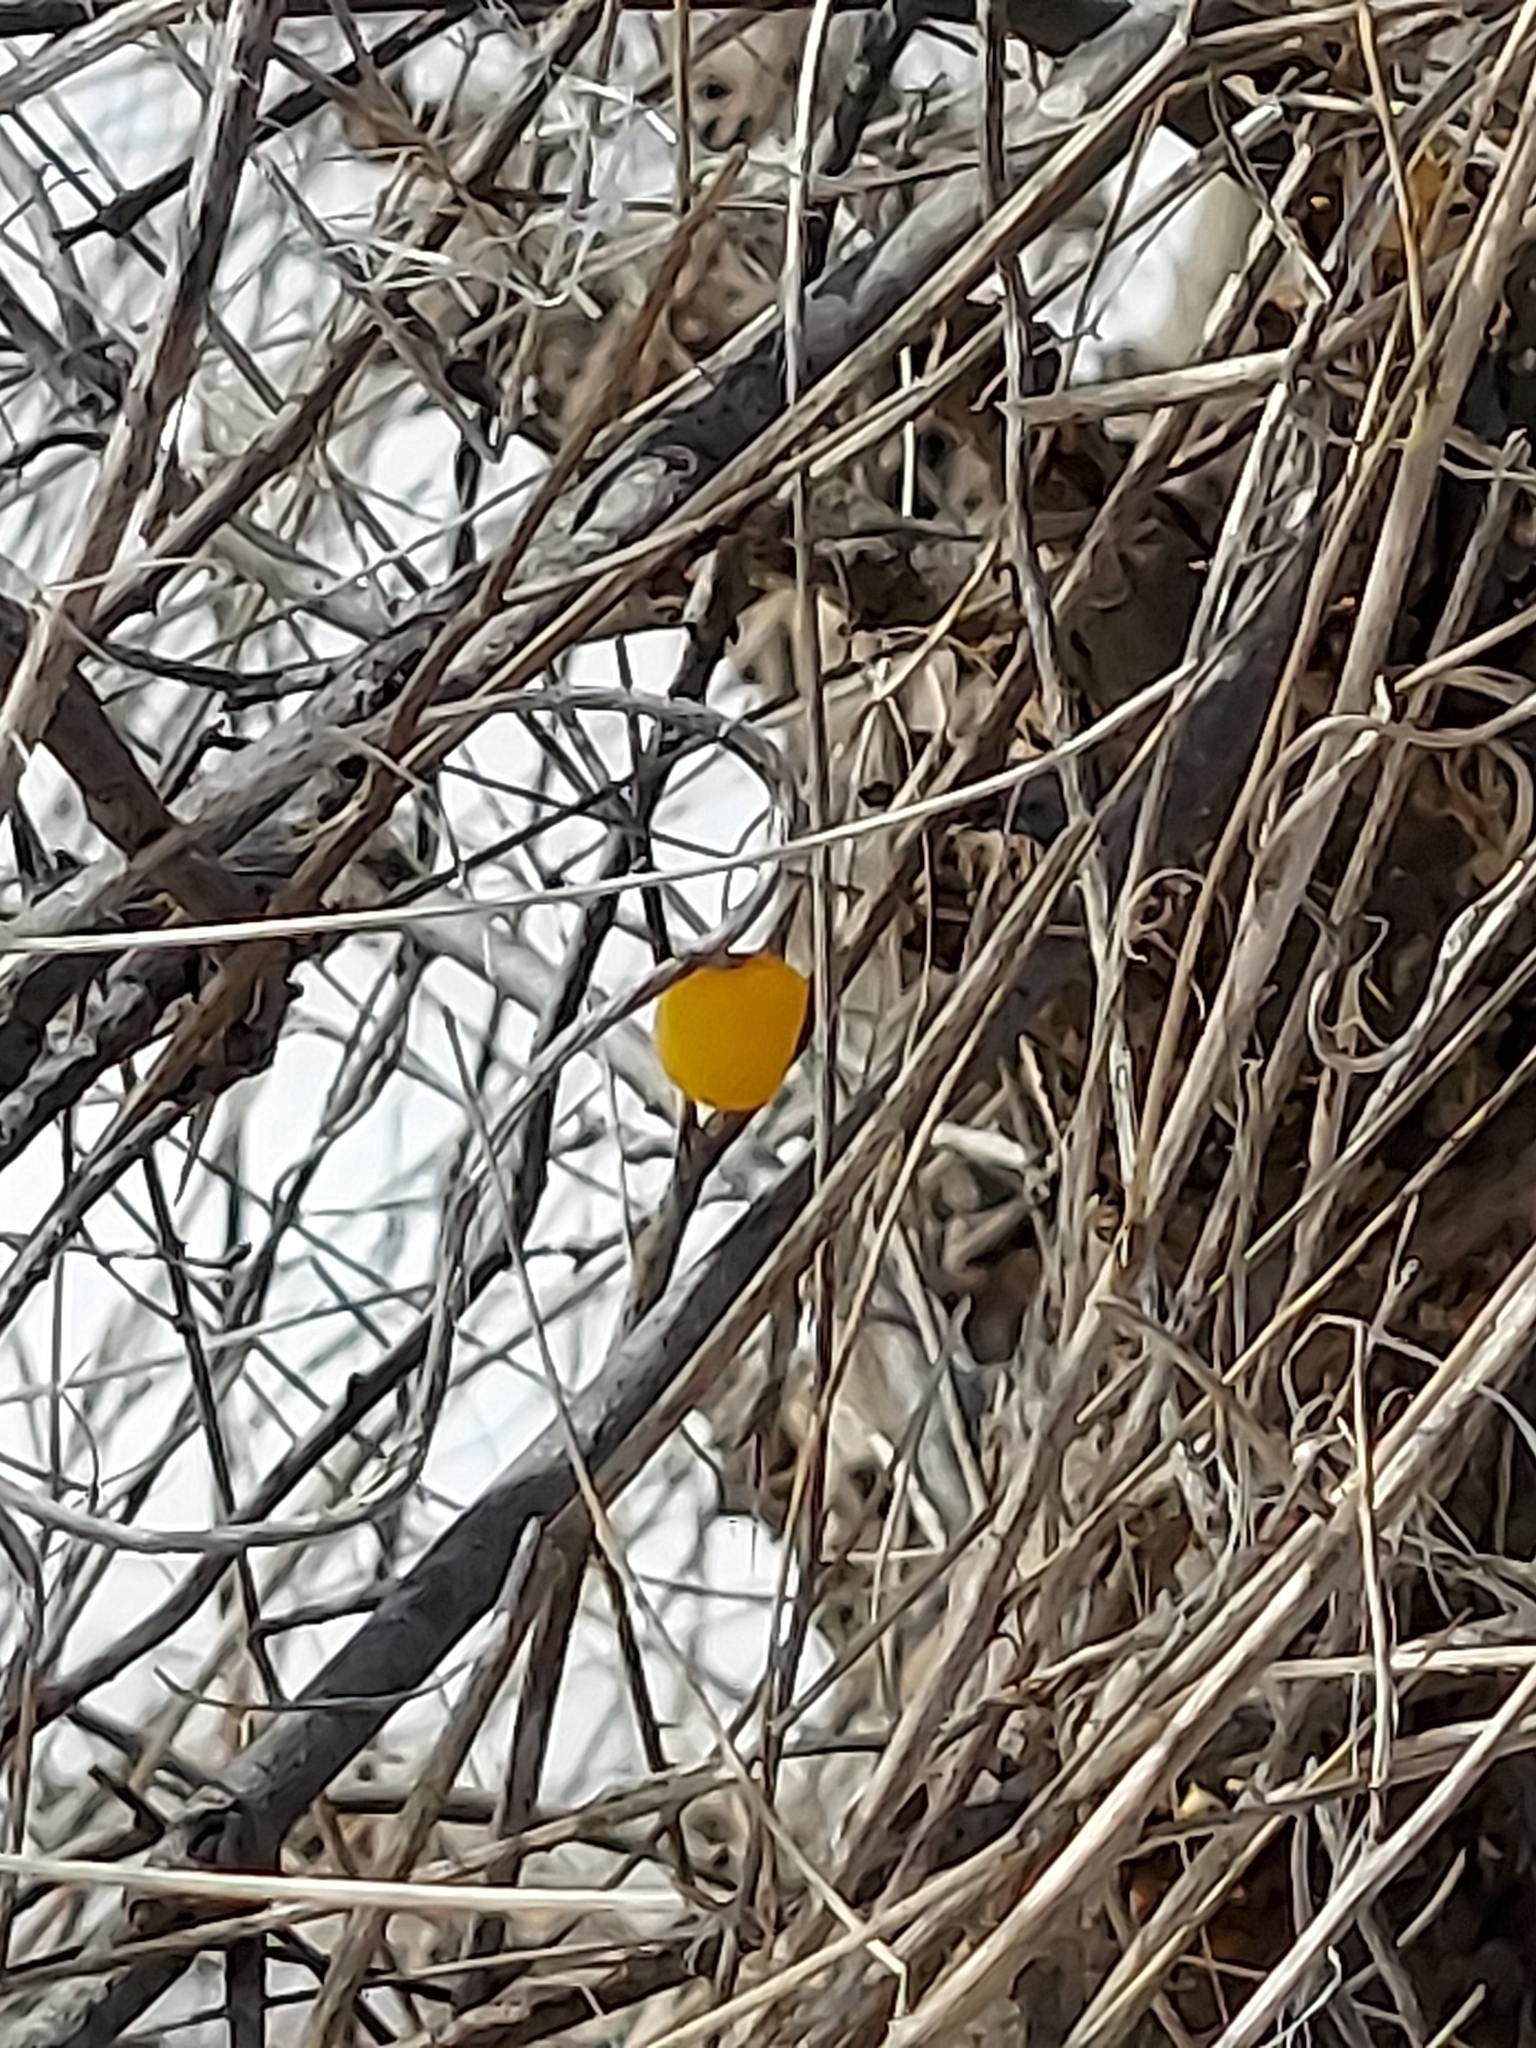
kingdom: Plantae
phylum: Tracheophyta
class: Magnoliopsida
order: Solanales
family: Solanaceae
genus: Solanum
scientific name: Solanum carolinense
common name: Horse-nettle
